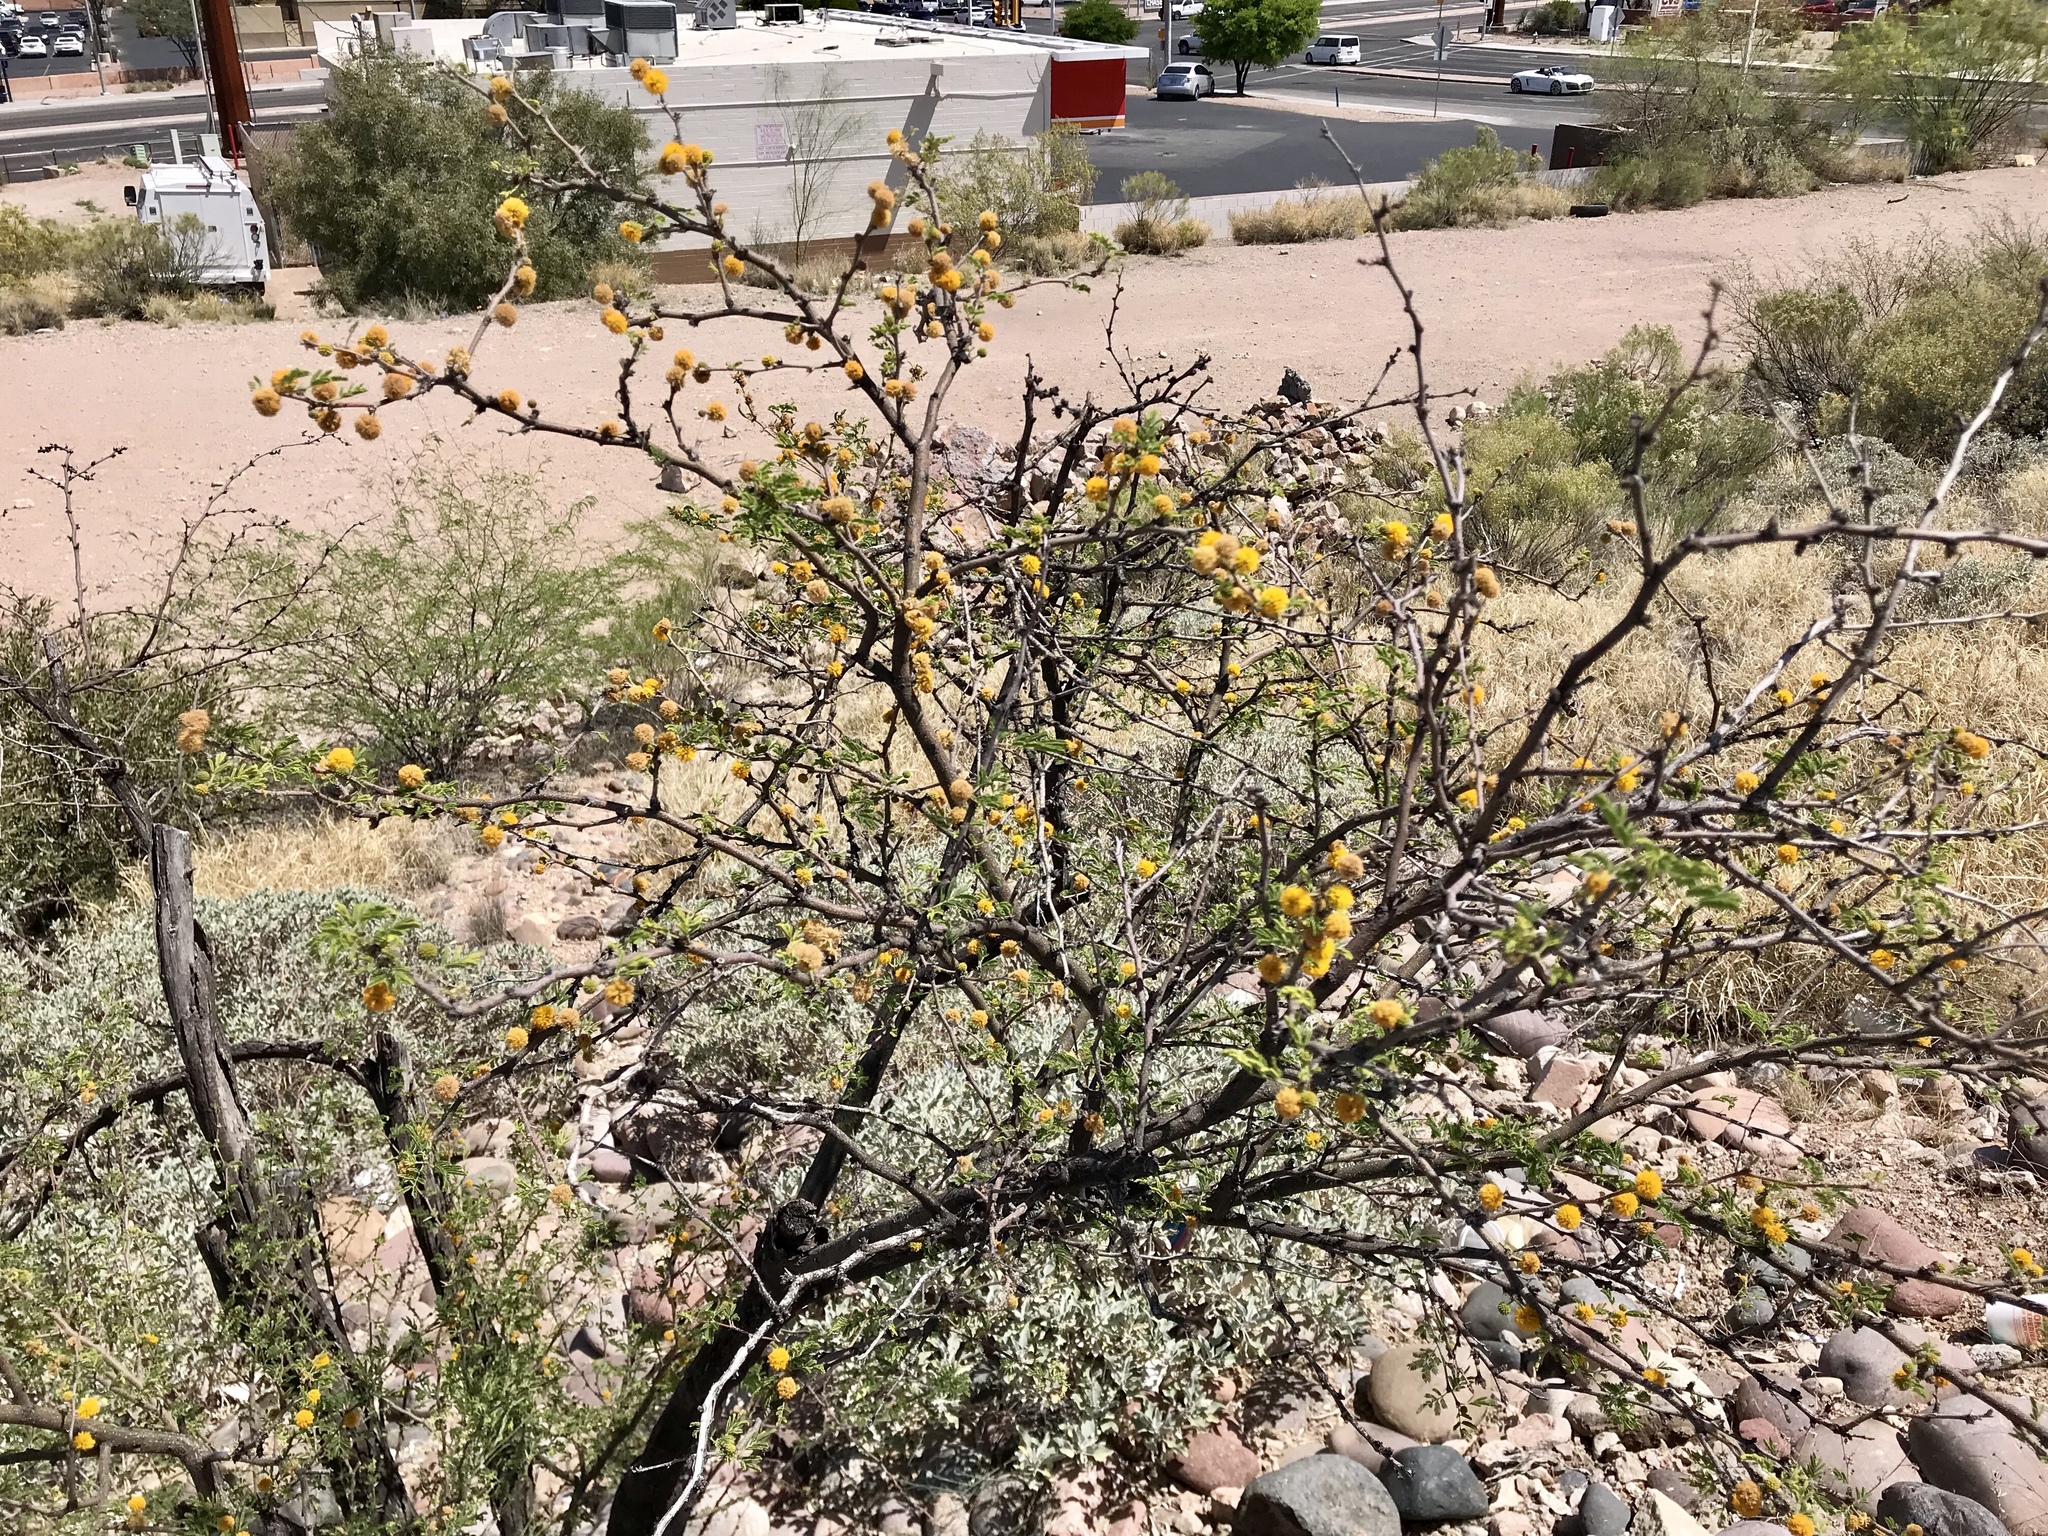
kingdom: Plantae
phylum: Tracheophyta
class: Magnoliopsida
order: Fabales
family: Fabaceae
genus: Vachellia
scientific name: Vachellia farnesiana
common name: Sweet acacia
